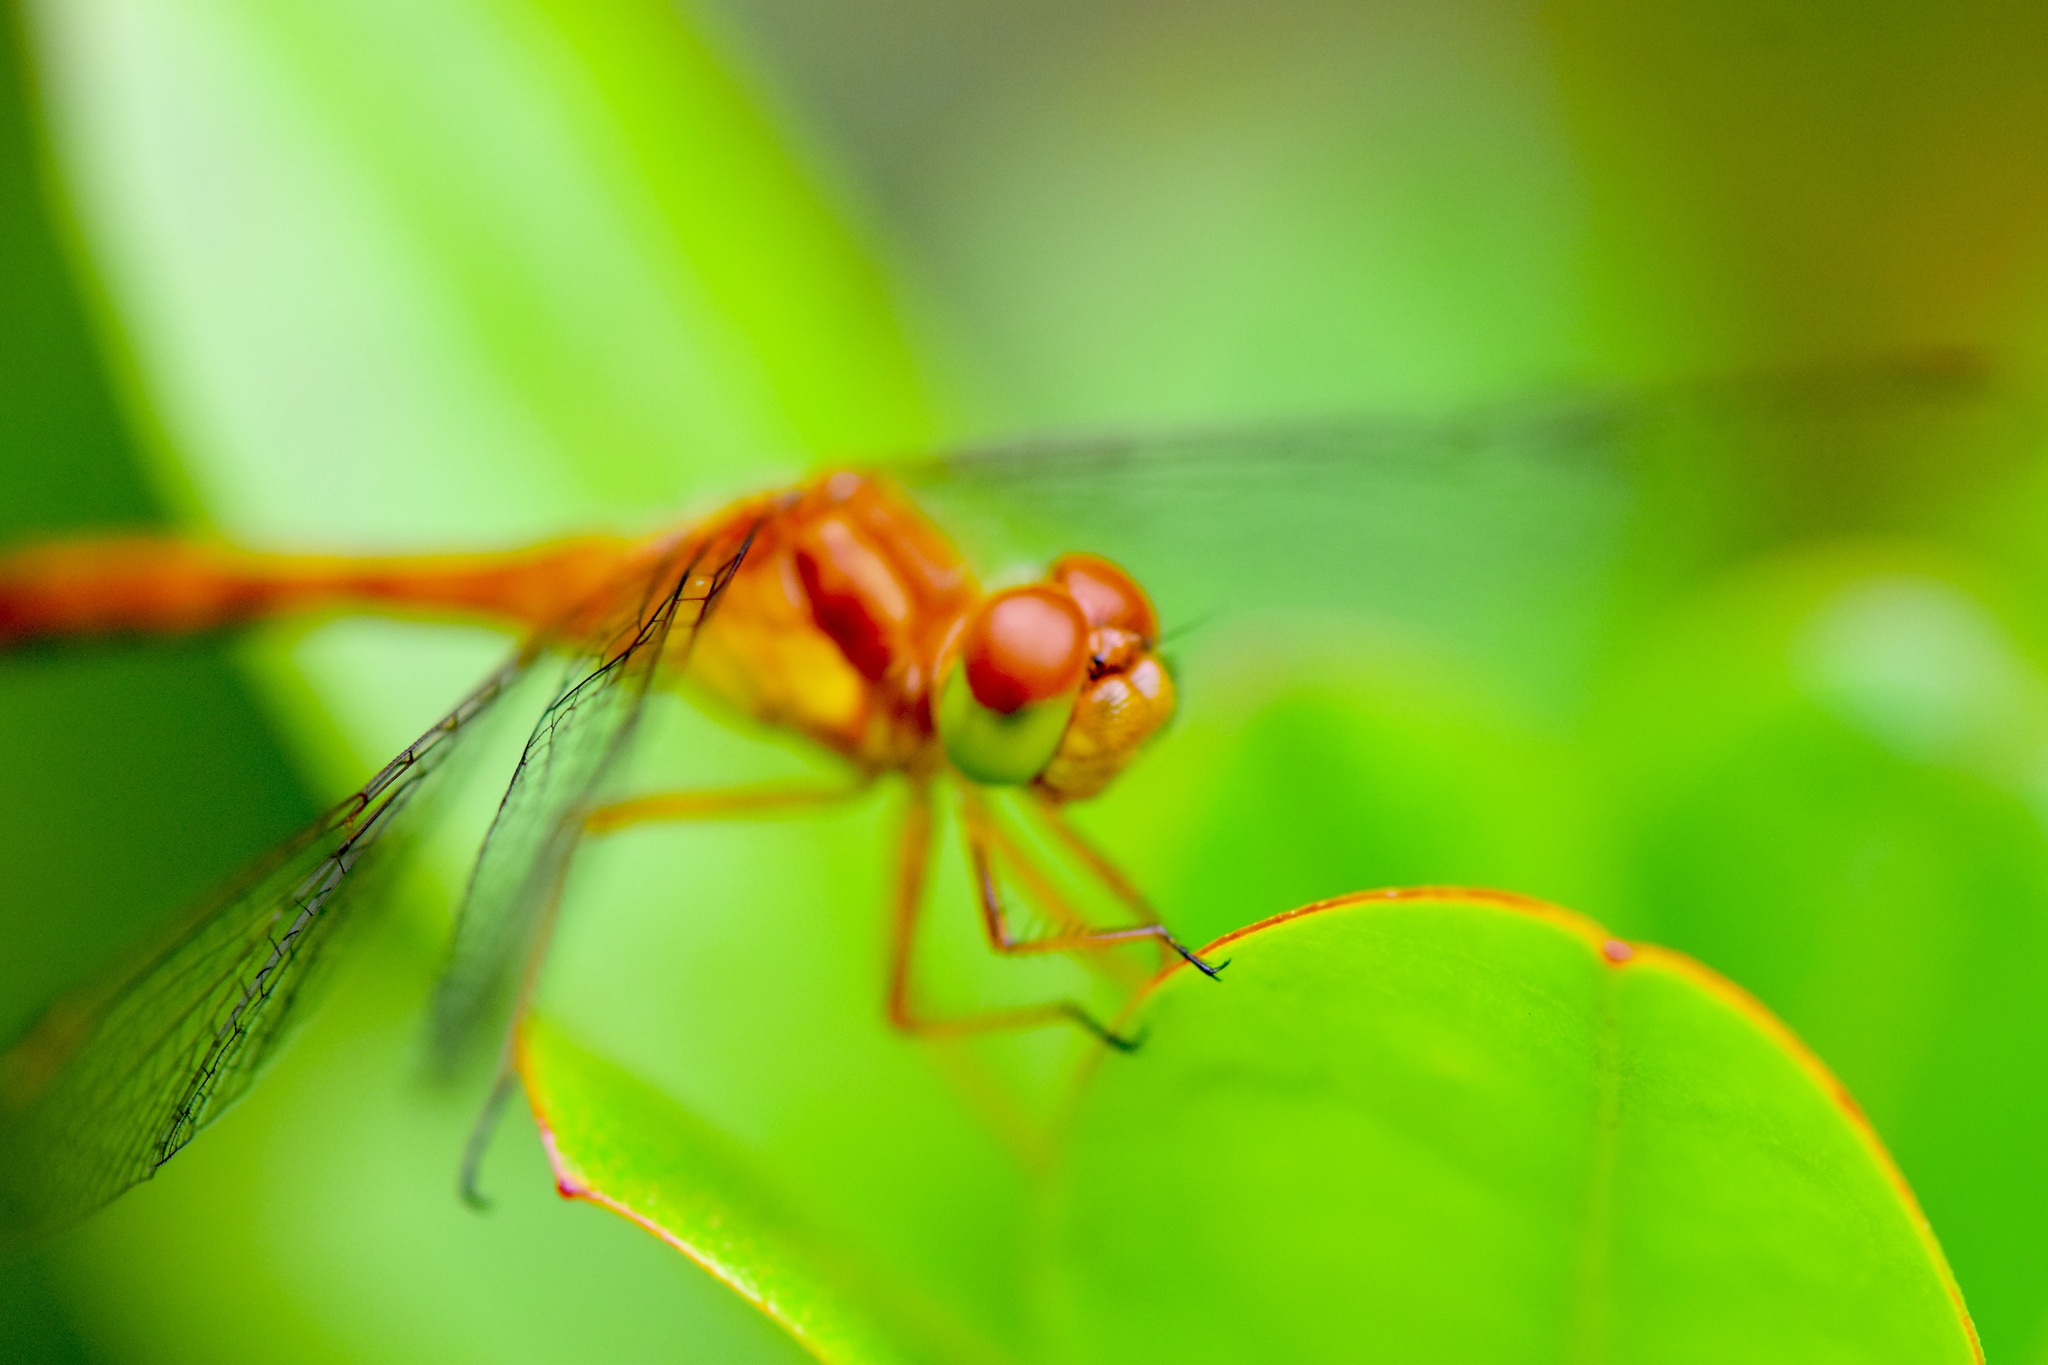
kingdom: Animalia
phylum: Arthropoda
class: Insecta
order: Odonata
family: Libellulidae
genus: Sympetrum
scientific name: Sympetrum vicinum
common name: Autumn meadowhawk
